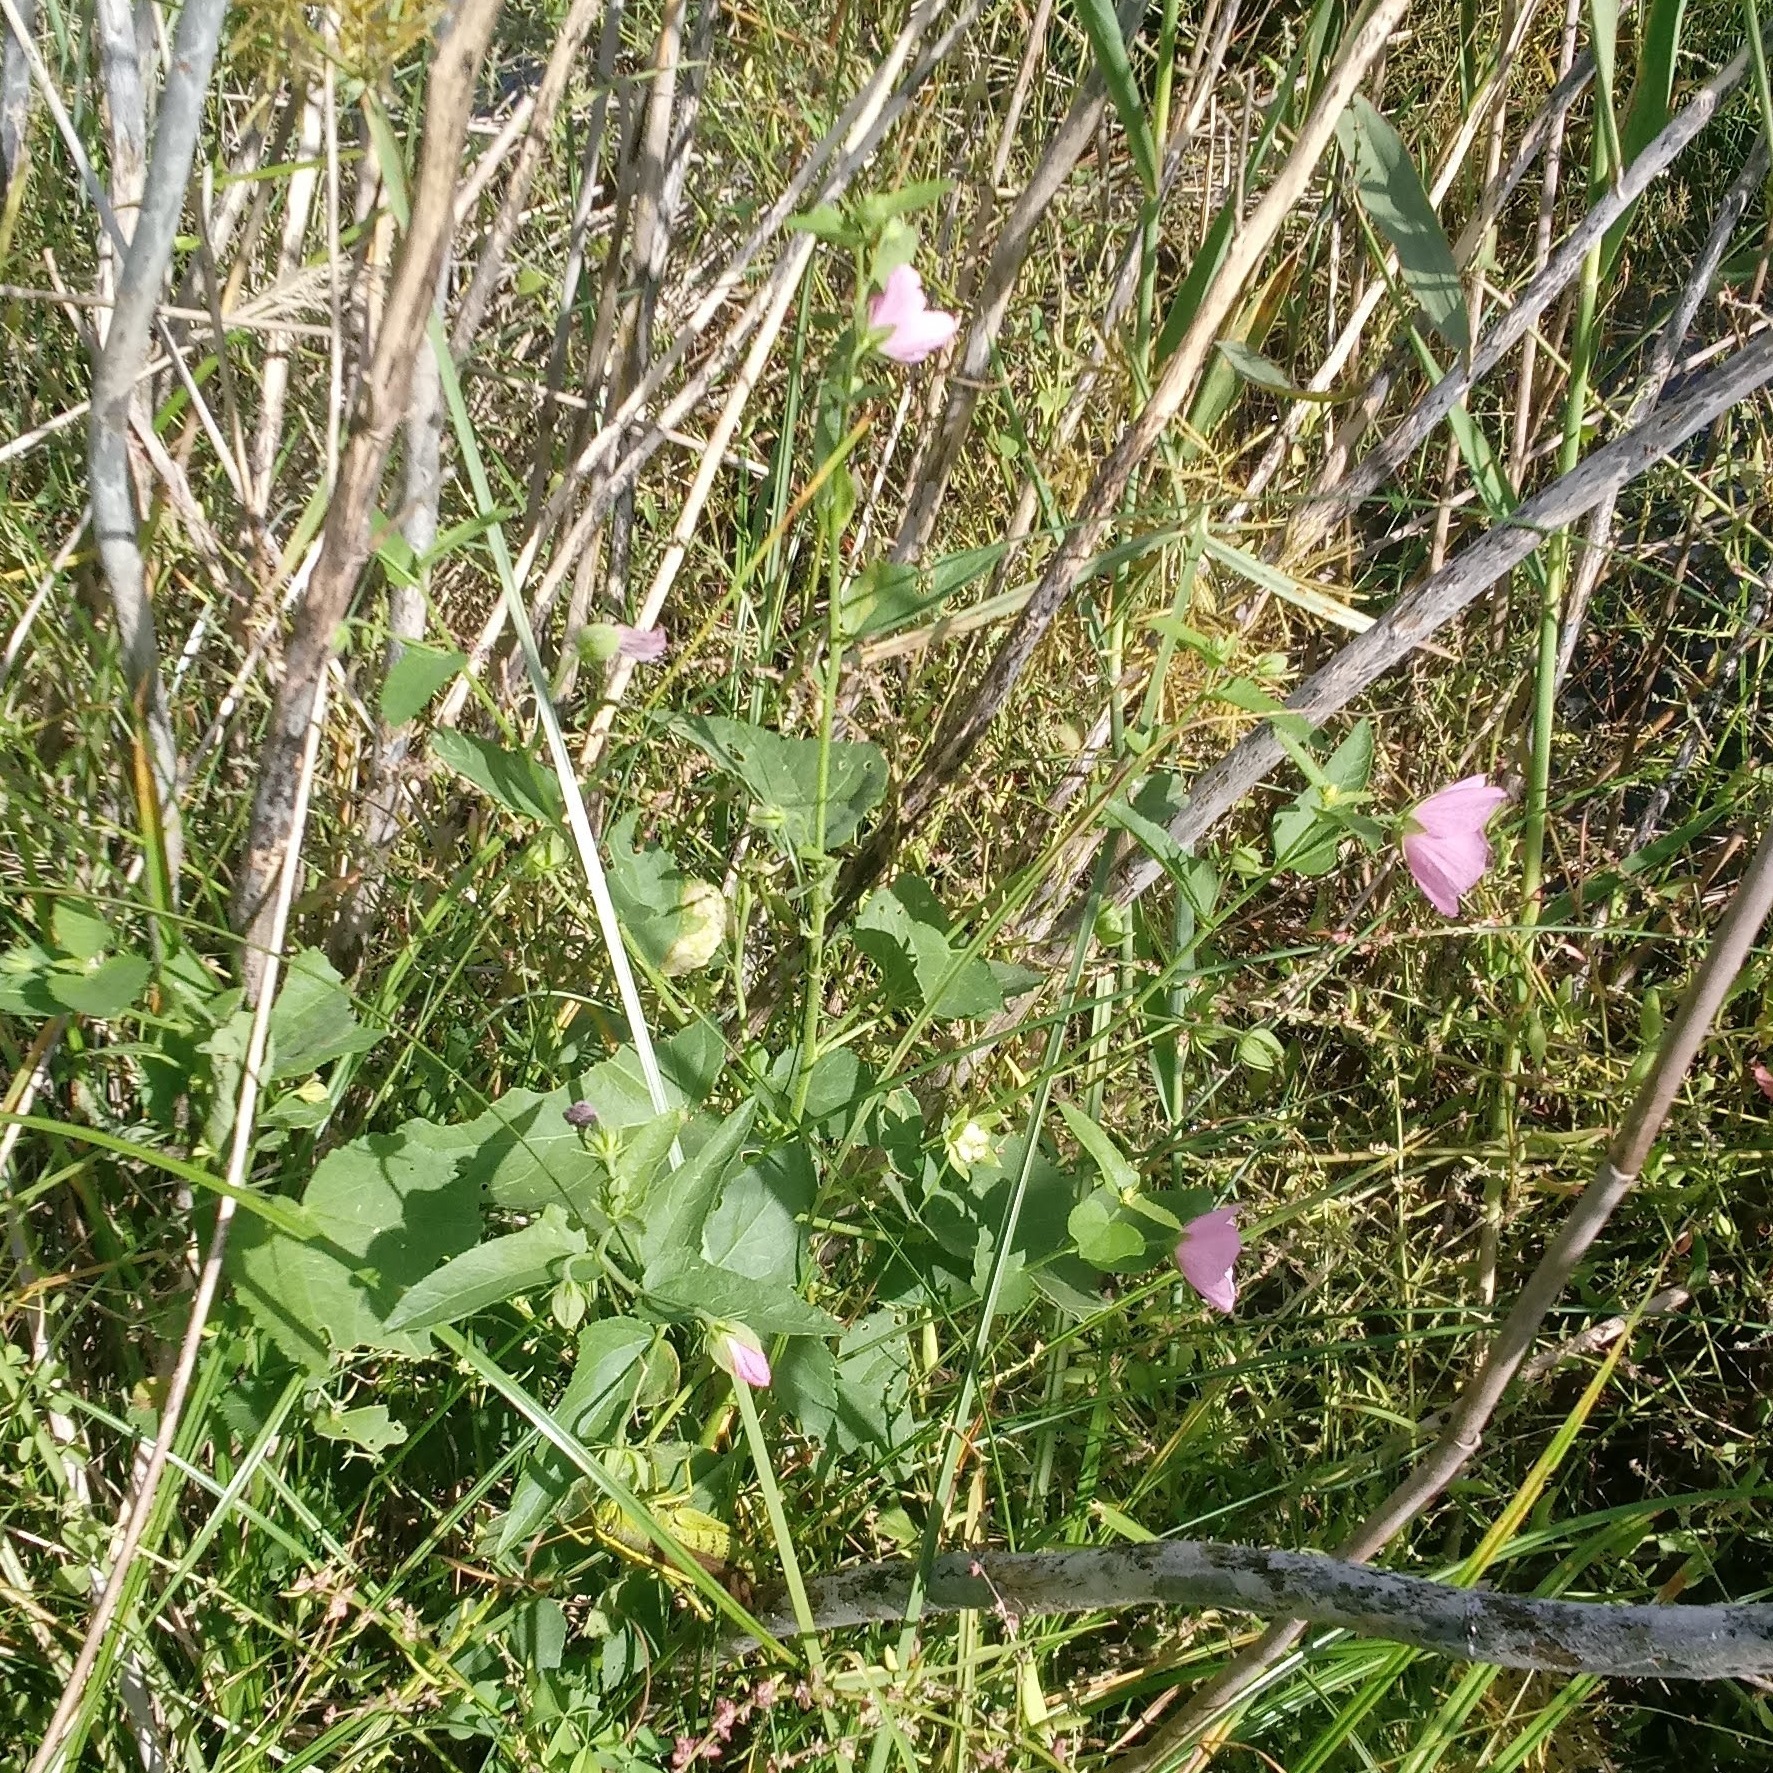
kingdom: Plantae
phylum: Tracheophyta
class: Magnoliopsida
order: Malvales
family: Malvaceae
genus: Kosteletzkya
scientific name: Kosteletzkya pentacarpos
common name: Virginia saltmarsh mallow
